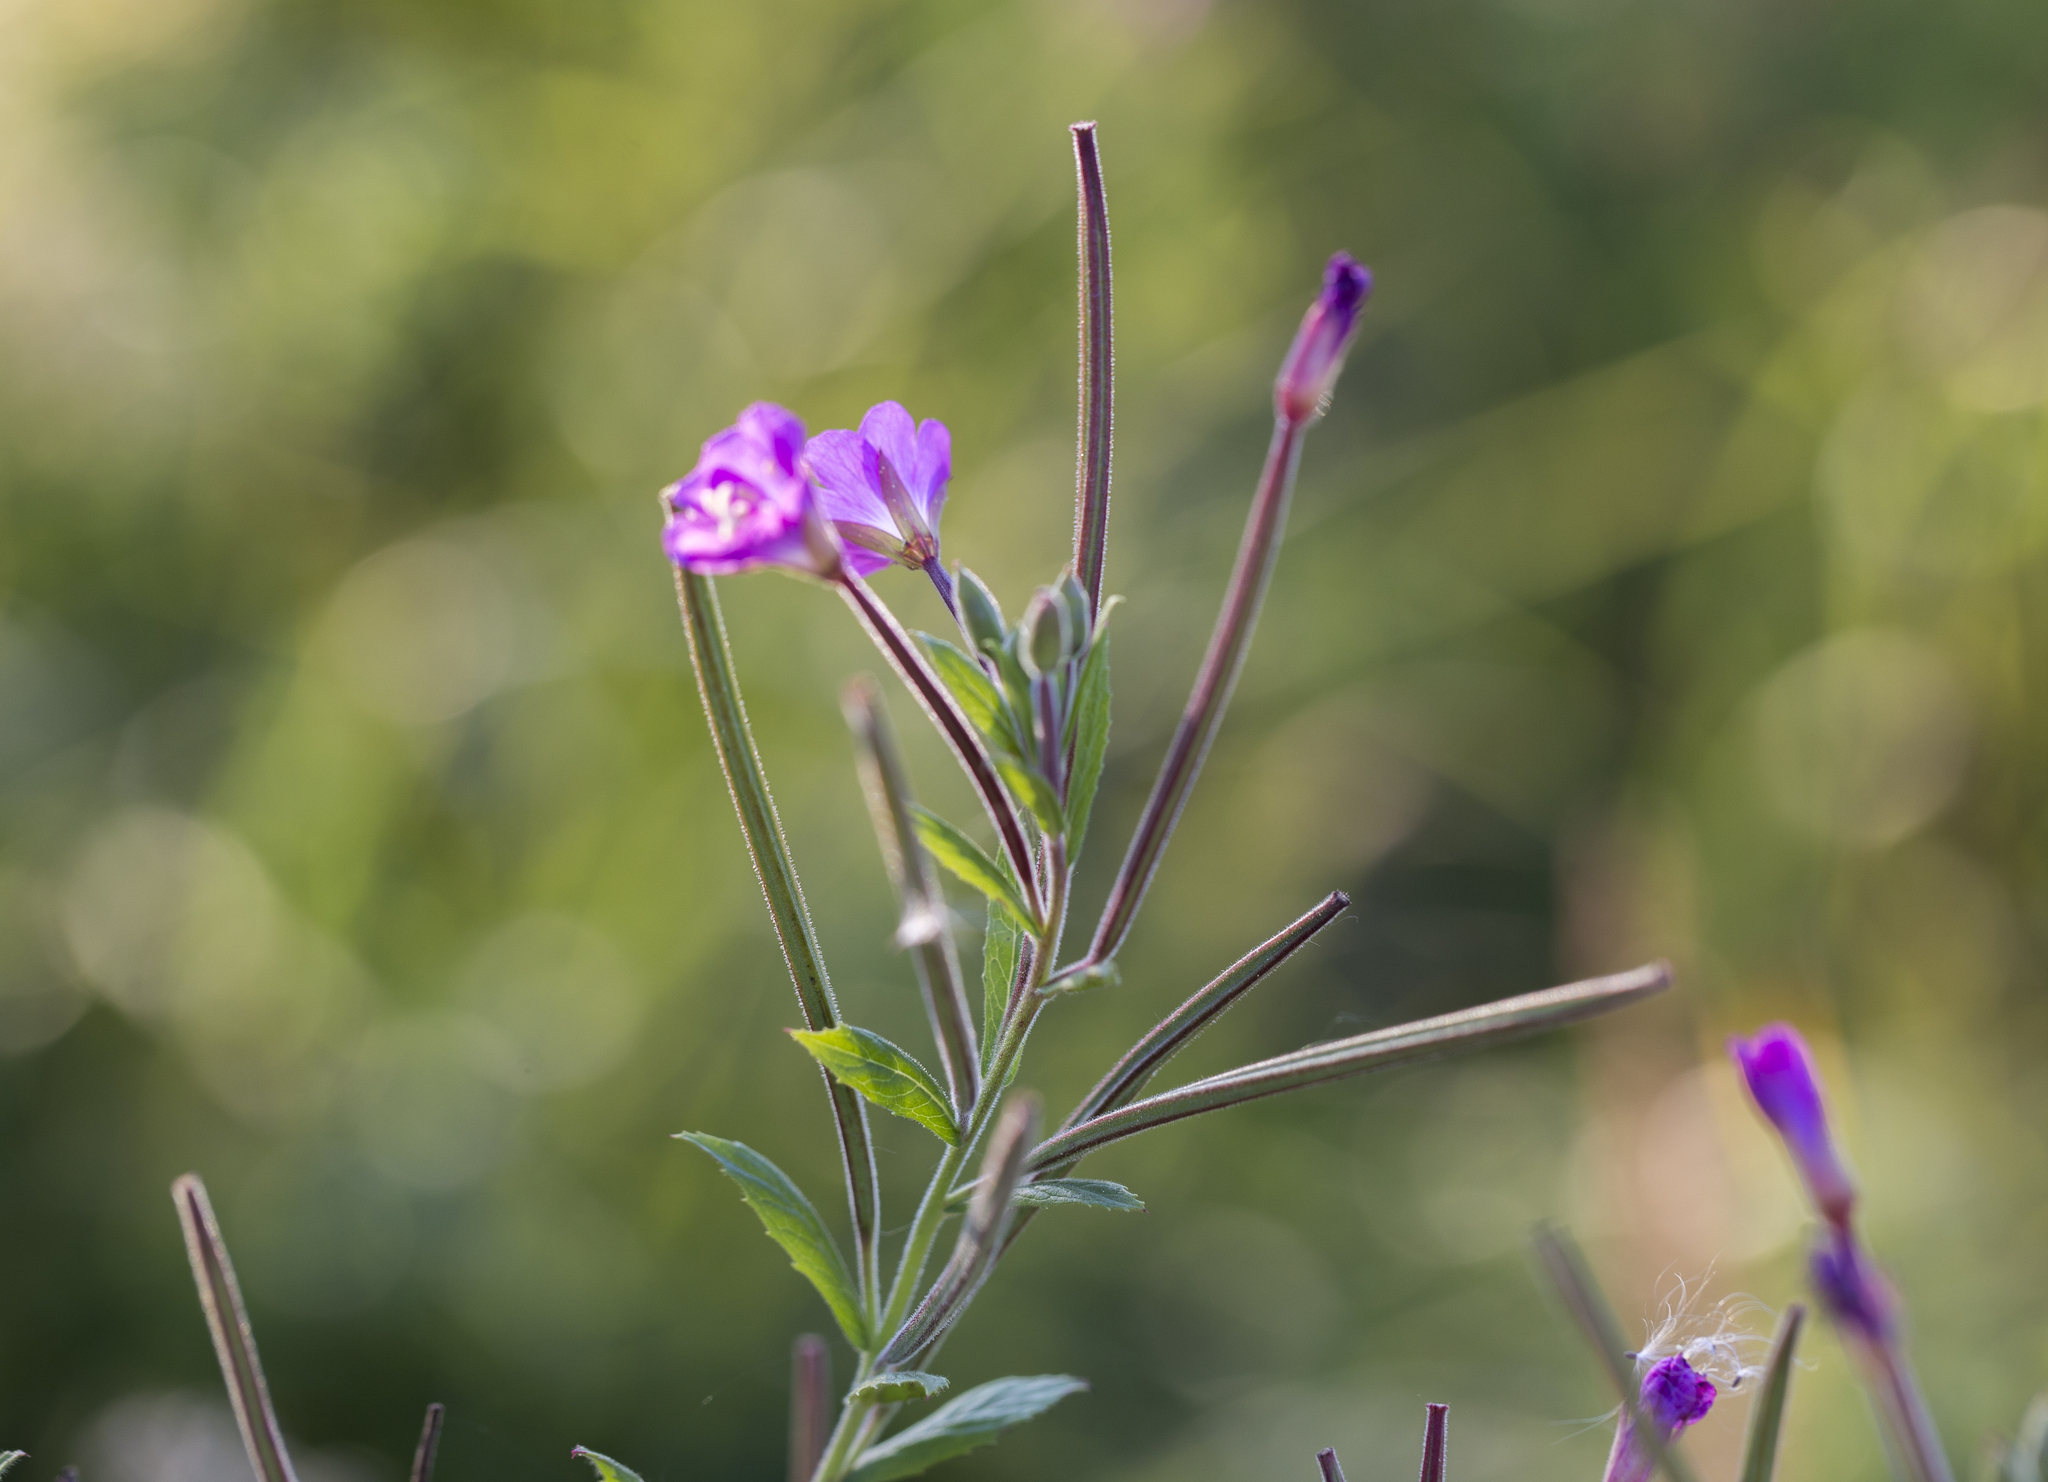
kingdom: Plantae
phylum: Tracheophyta
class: Magnoliopsida
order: Myrtales
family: Onagraceae
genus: Epilobium
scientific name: Epilobium hirsutum
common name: Great willowherb
